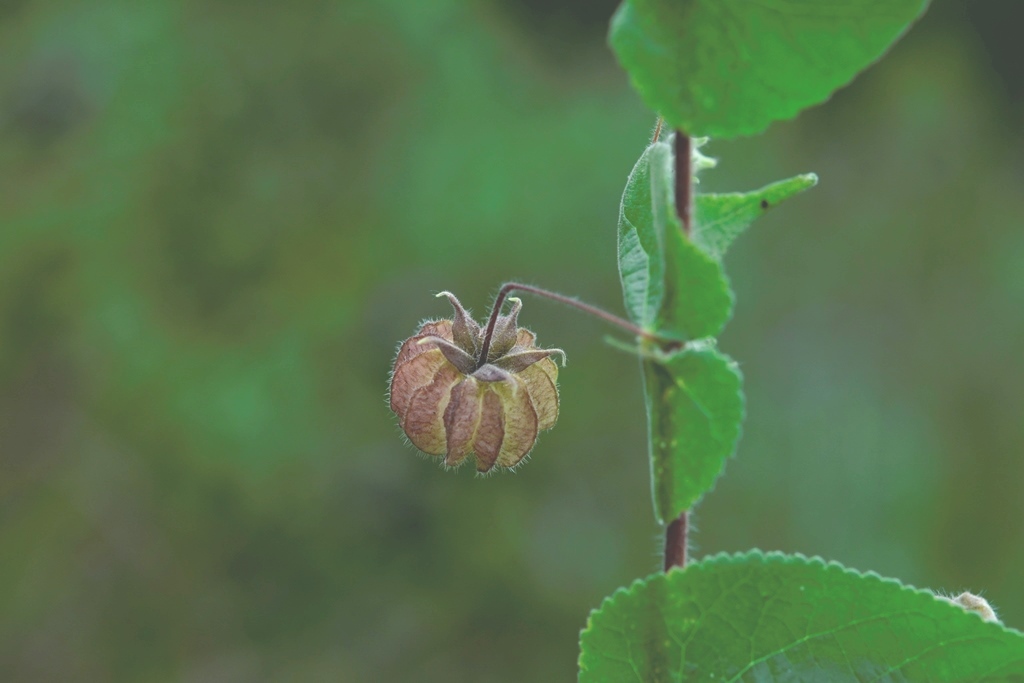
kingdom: Plantae
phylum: Tracheophyta
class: Magnoliopsida
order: Malvales
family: Malvaceae
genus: Herissantia
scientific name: Herissantia crispa
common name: Bladdermallow
